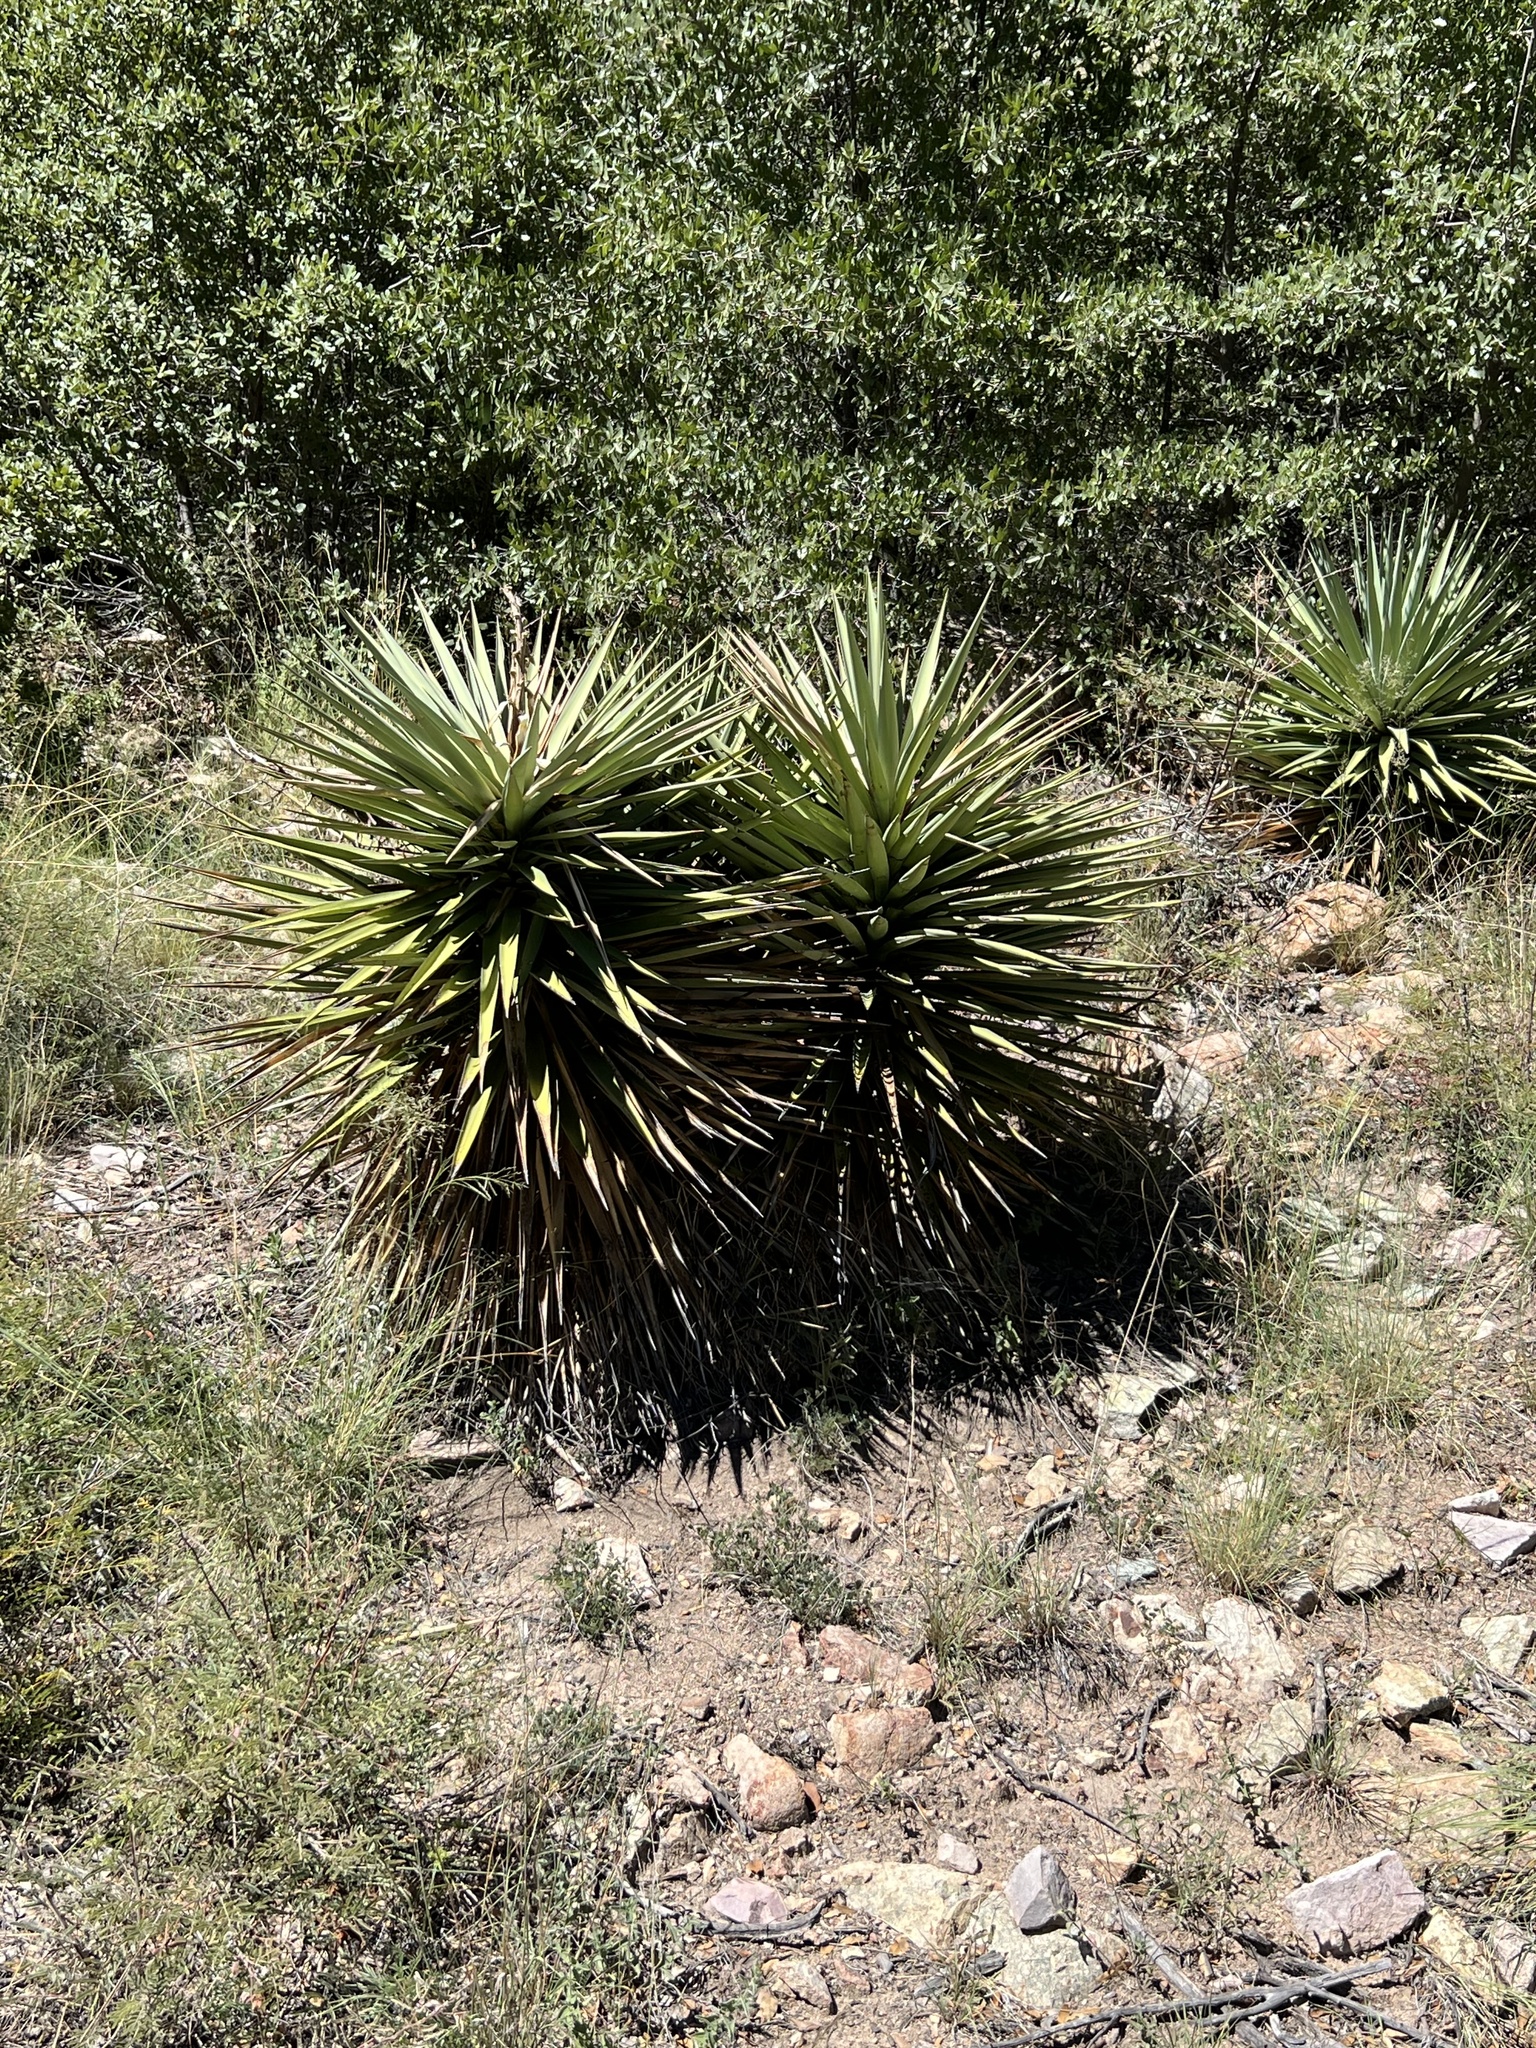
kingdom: Plantae
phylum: Tracheophyta
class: Liliopsida
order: Asparagales
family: Asparagaceae
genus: Yucca
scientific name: Yucca schottii
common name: Hoary yucca
